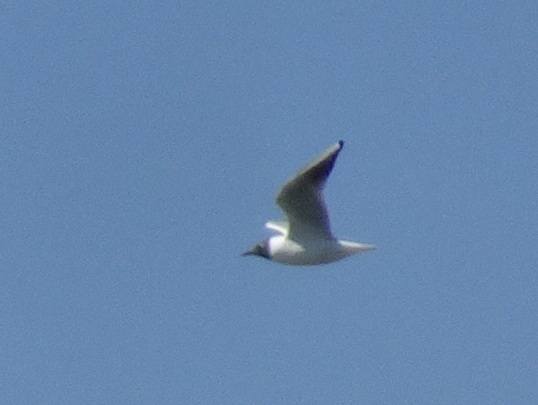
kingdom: Animalia
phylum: Chordata
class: Aves
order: Charadriiformes
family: Laridae
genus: Chroicocephalus
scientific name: Chroicocephalus ridibundus
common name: Black-headed gull
